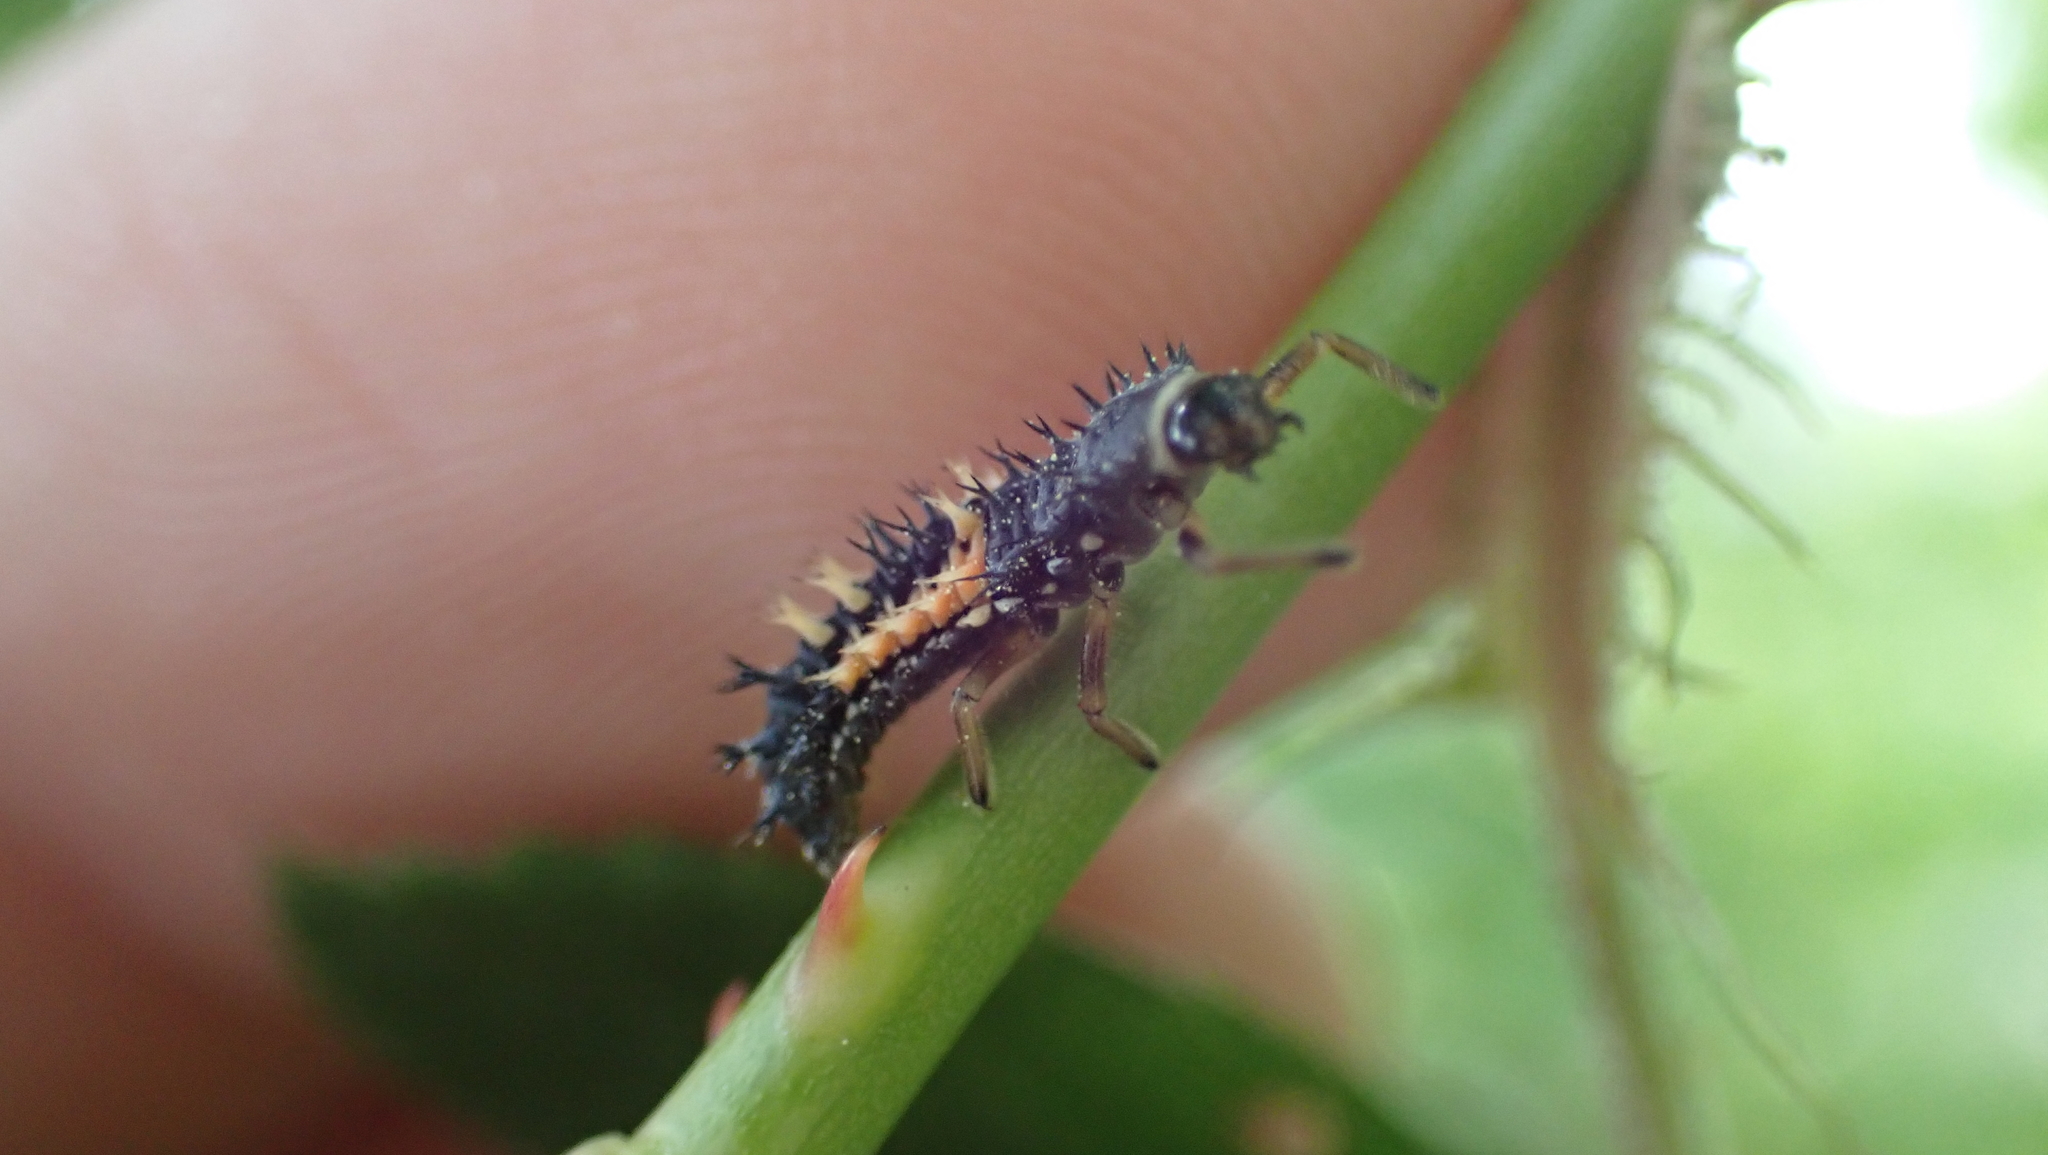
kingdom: Animalia
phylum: Arthropoda
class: Insecta
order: Coleoptera
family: Coccinellidae
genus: Harmonia
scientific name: Harmonia axyridis
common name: Harlequin ladybird
